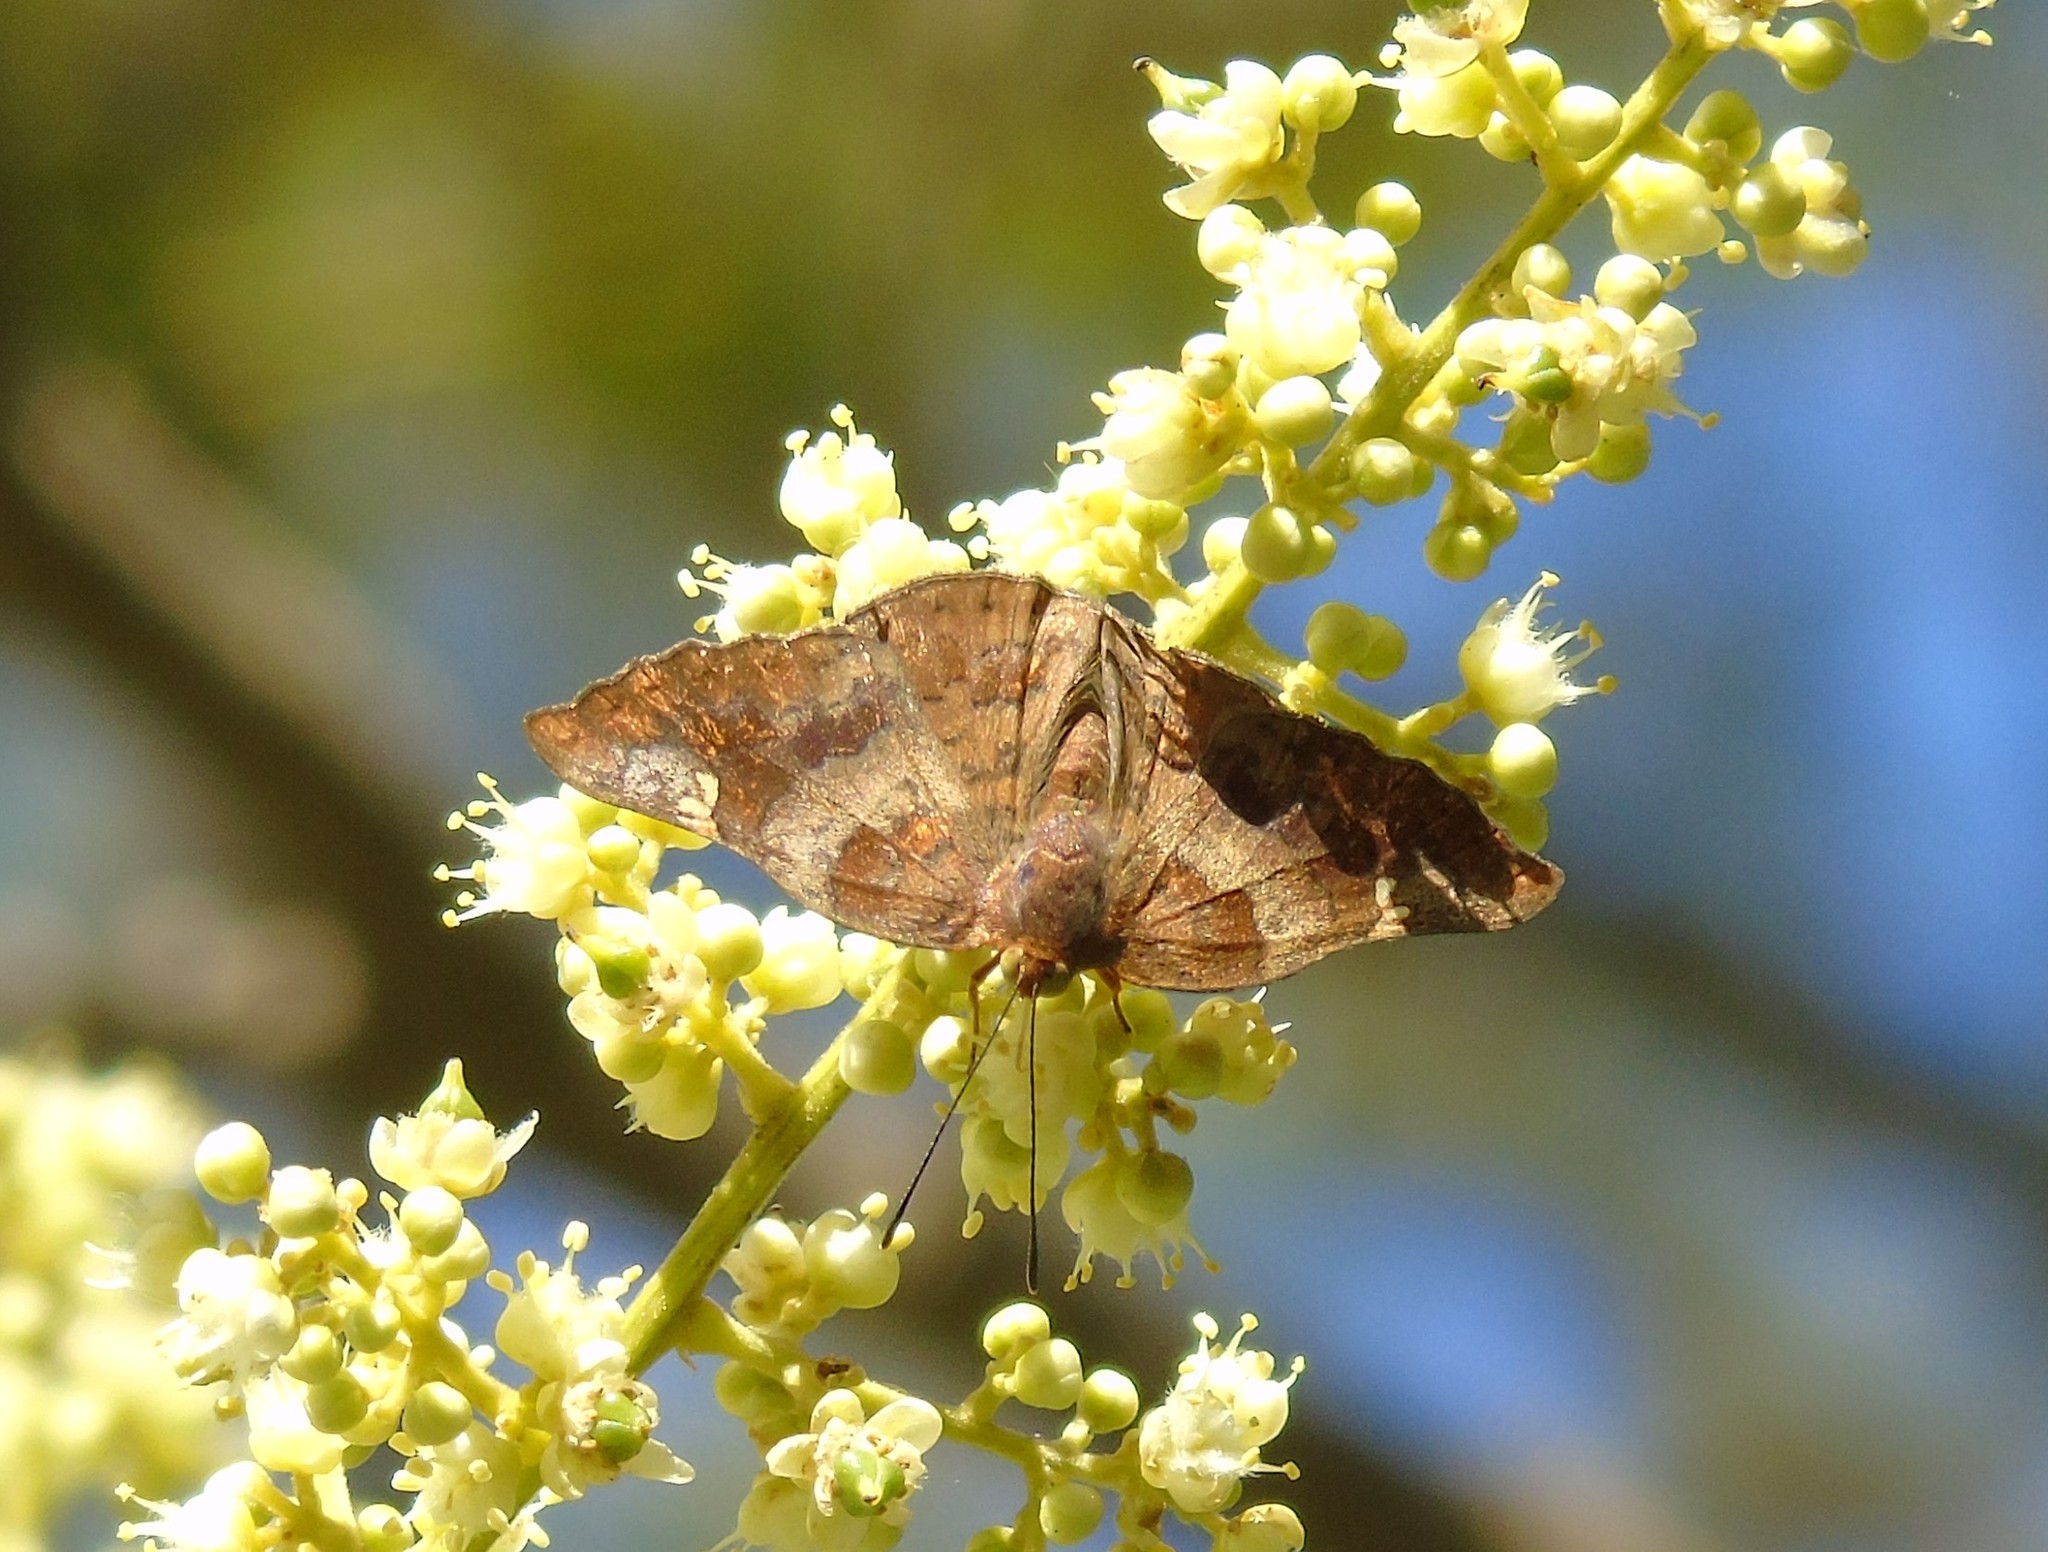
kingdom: Animalia
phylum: Arthropoda
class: Insecta
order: Lepidoptera
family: Riodinidae
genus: Curvie
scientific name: Curvie emesia
